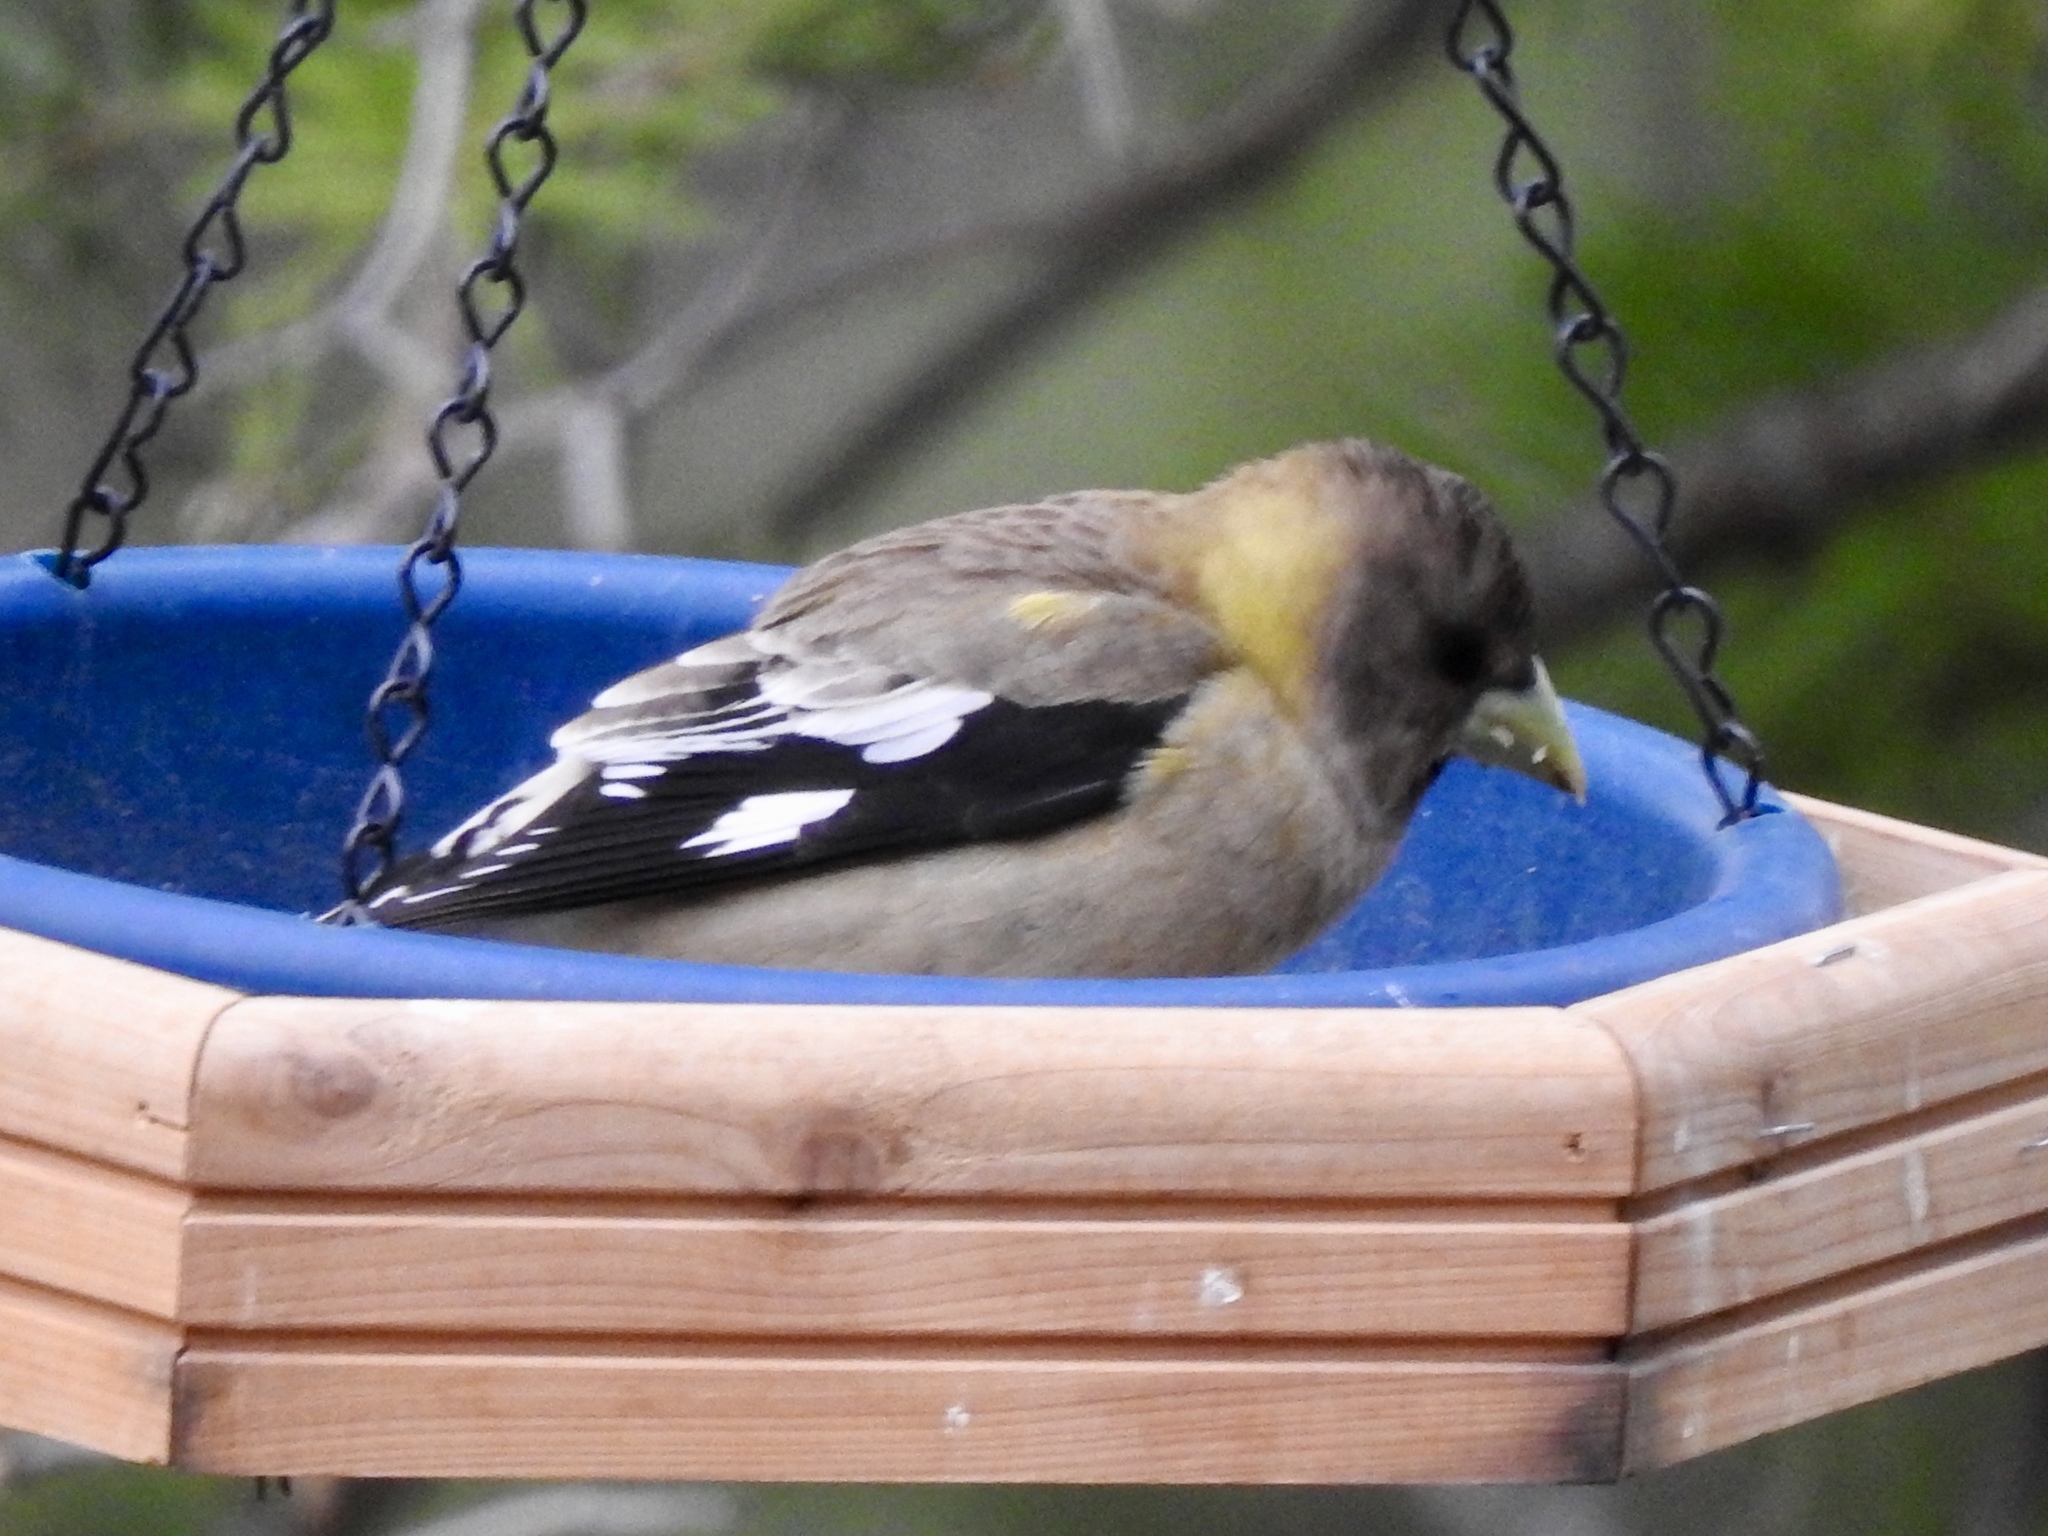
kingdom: Animalia
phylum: Chordata
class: Aves
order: Passeriformes
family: Fringillidae
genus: Hesperiphona
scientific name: Hesperiphona vespertina
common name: Evening grosbeak
